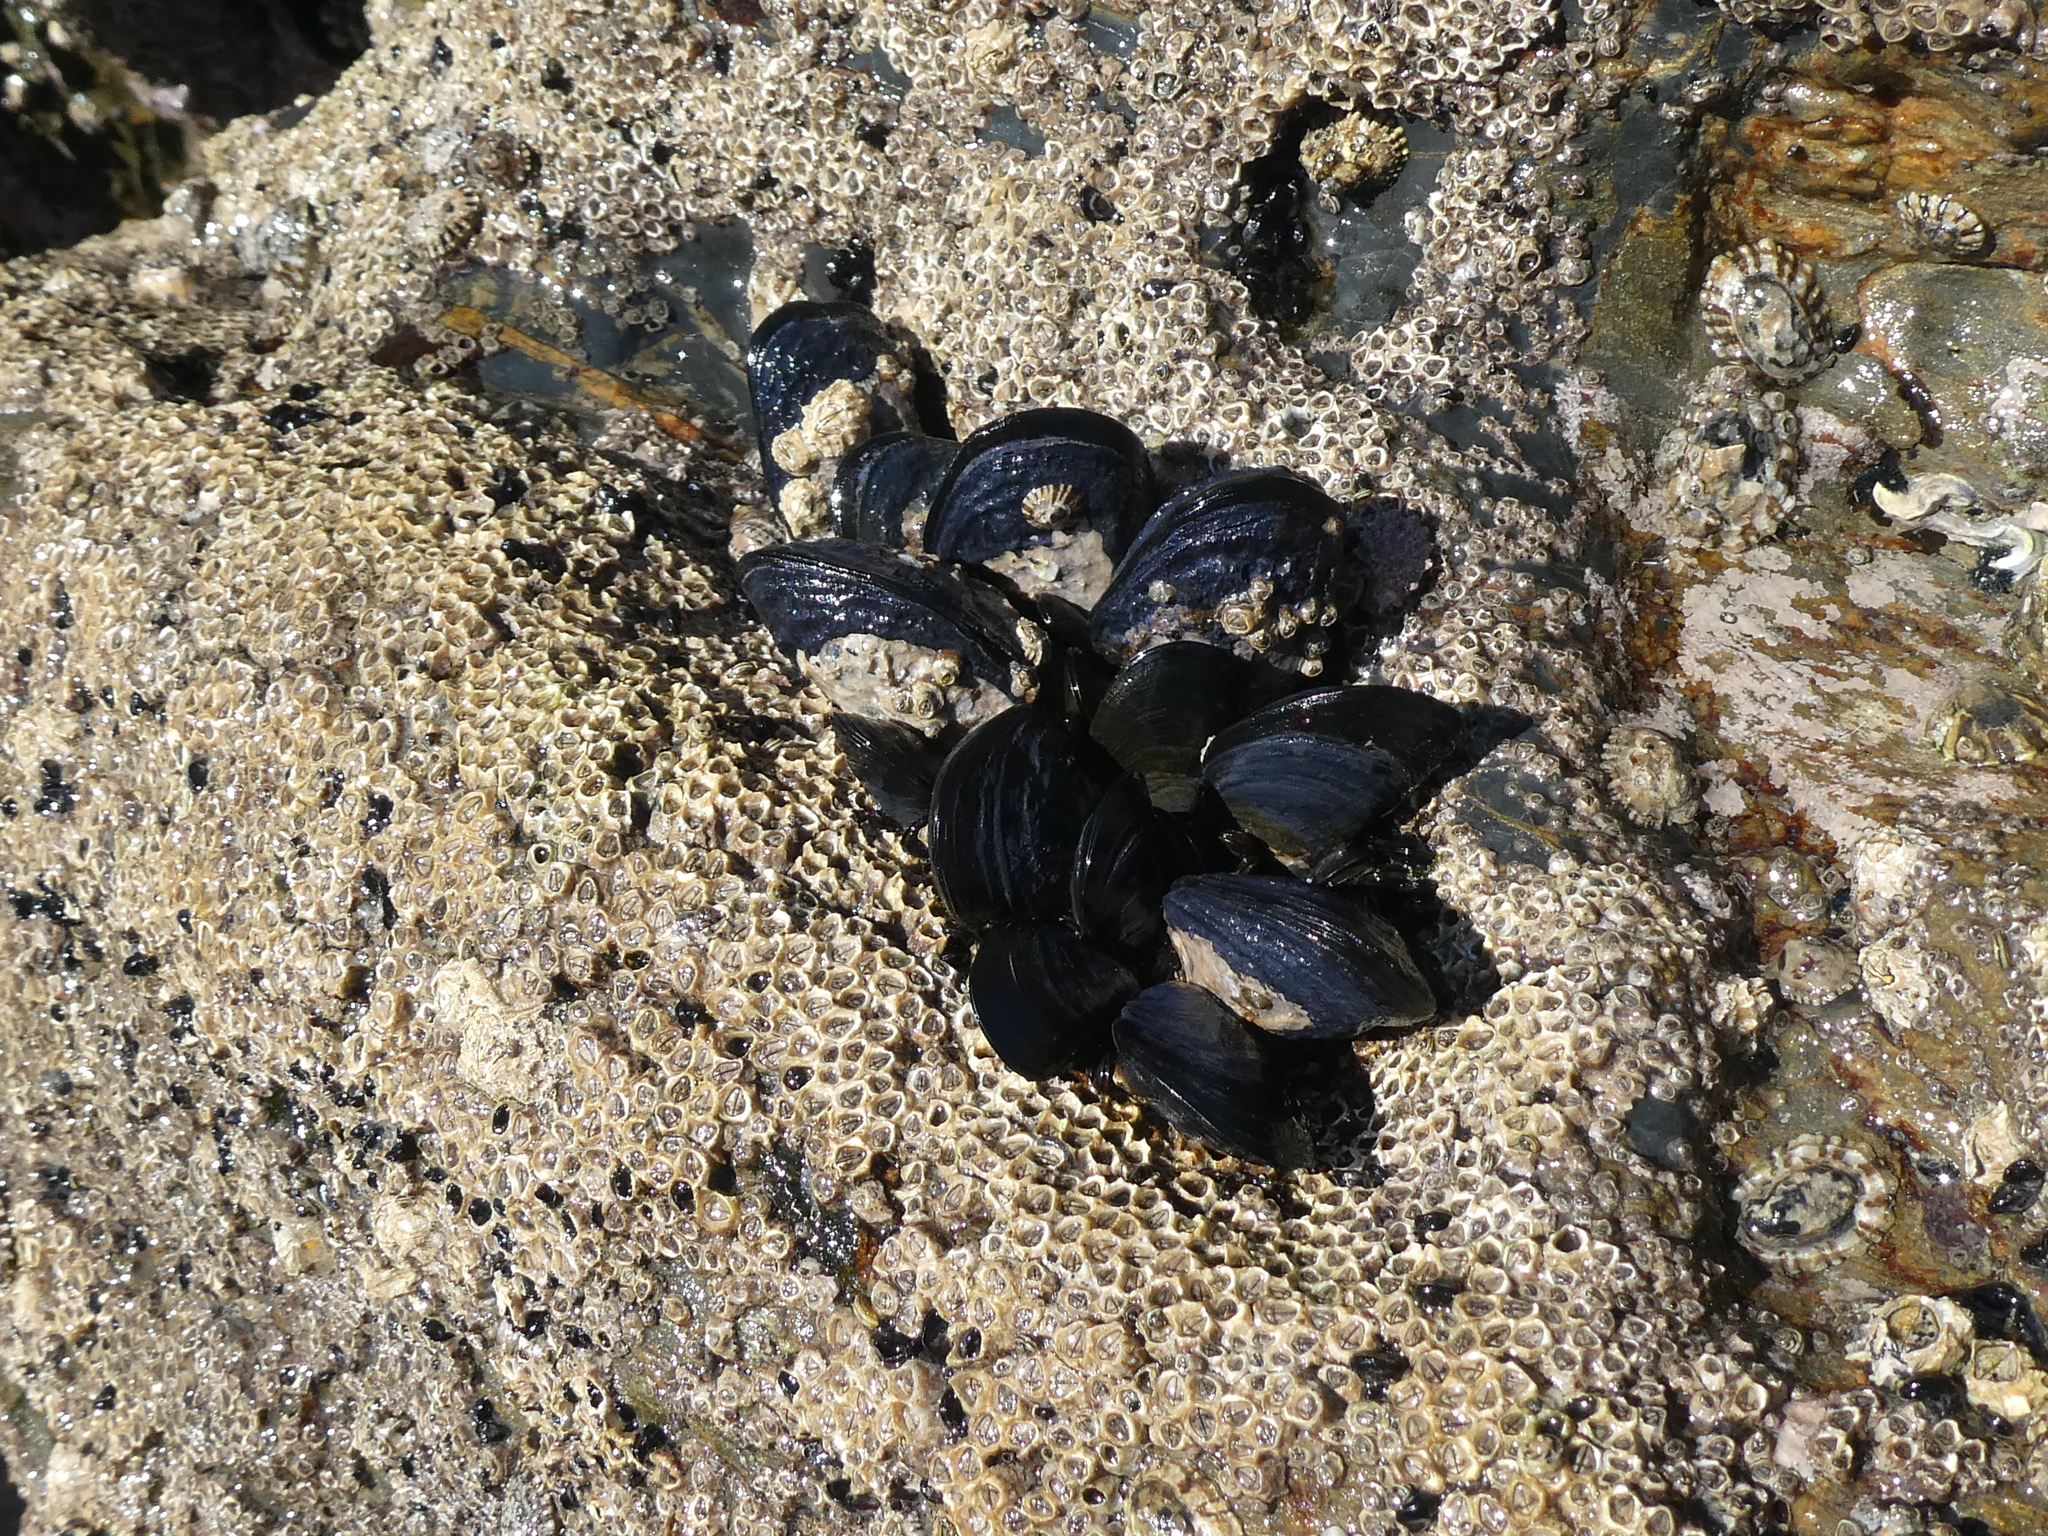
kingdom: Animalia
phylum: Mollusca
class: Bivalvia
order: Mytilida
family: Mytilidae
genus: Mytilus
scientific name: Mytilus planulatus
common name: Australian mussel
